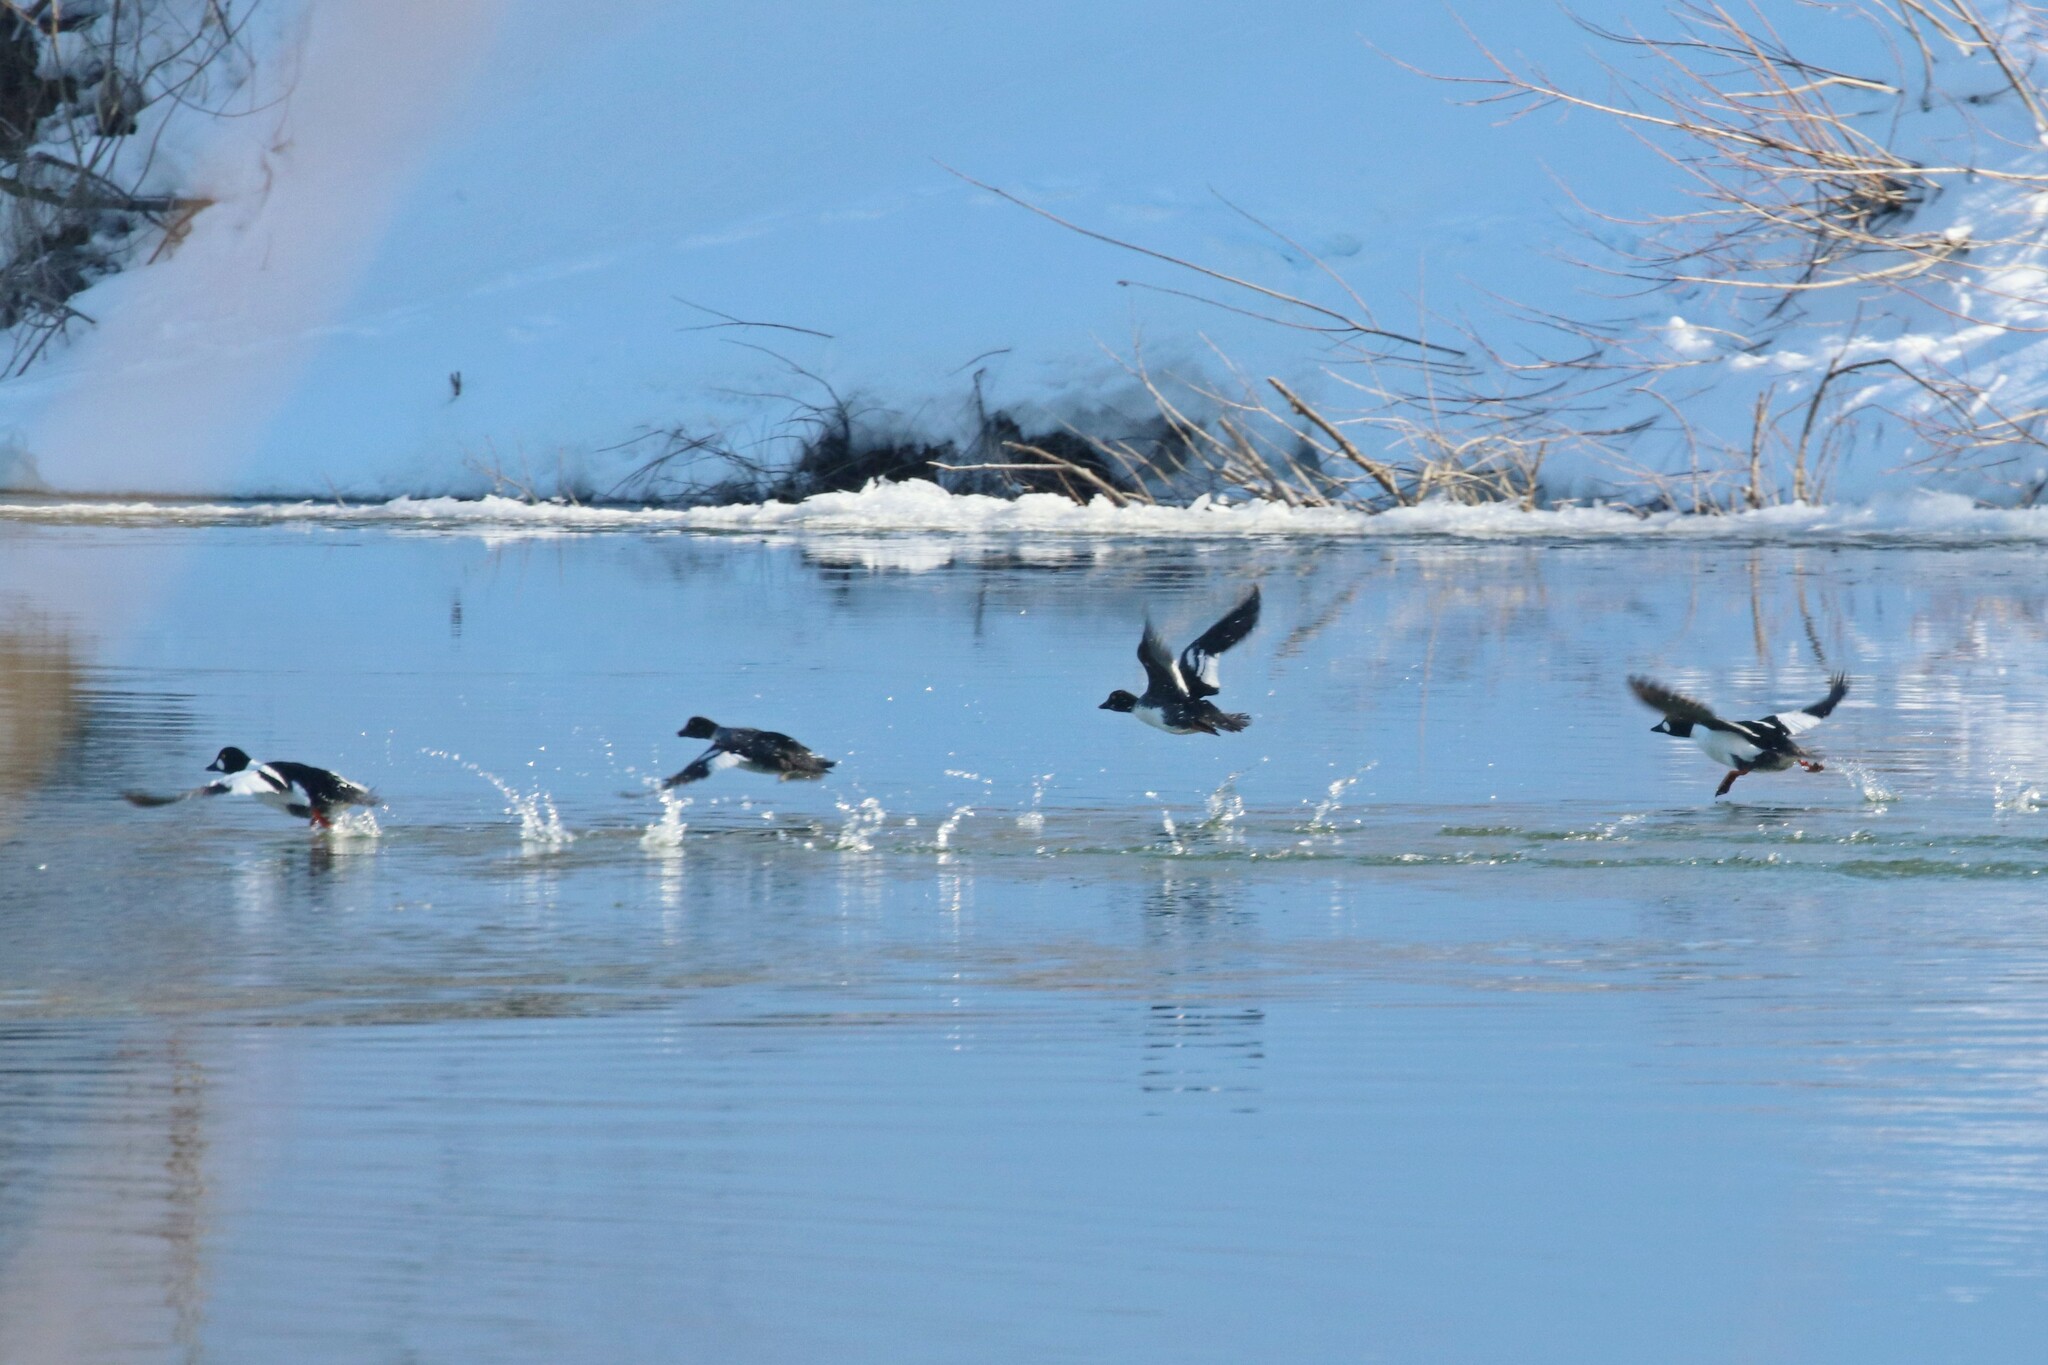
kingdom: Animalia
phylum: Chordata
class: Aves
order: Anseriformes
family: Anatidae
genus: Bucephala
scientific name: Bucephala clangula
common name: Common goldeneye
